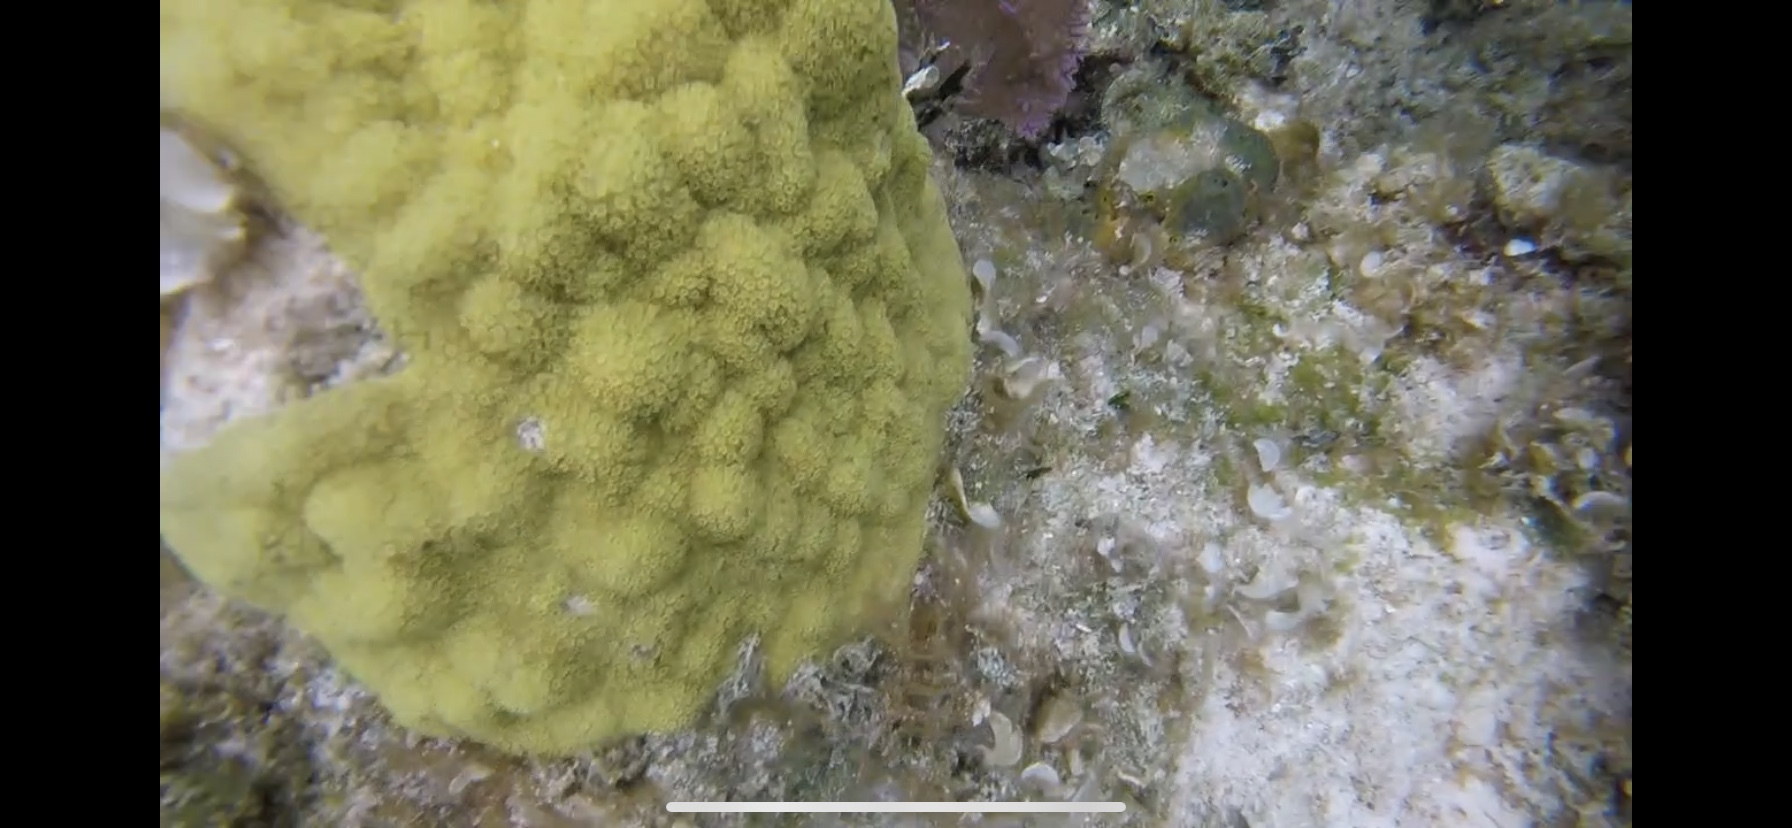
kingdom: Animalia
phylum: Cnidaria
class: Anthozoa
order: Scleractinia
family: Poritidae
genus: Porites
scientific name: Porites astreoides
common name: Mustard hill coral
